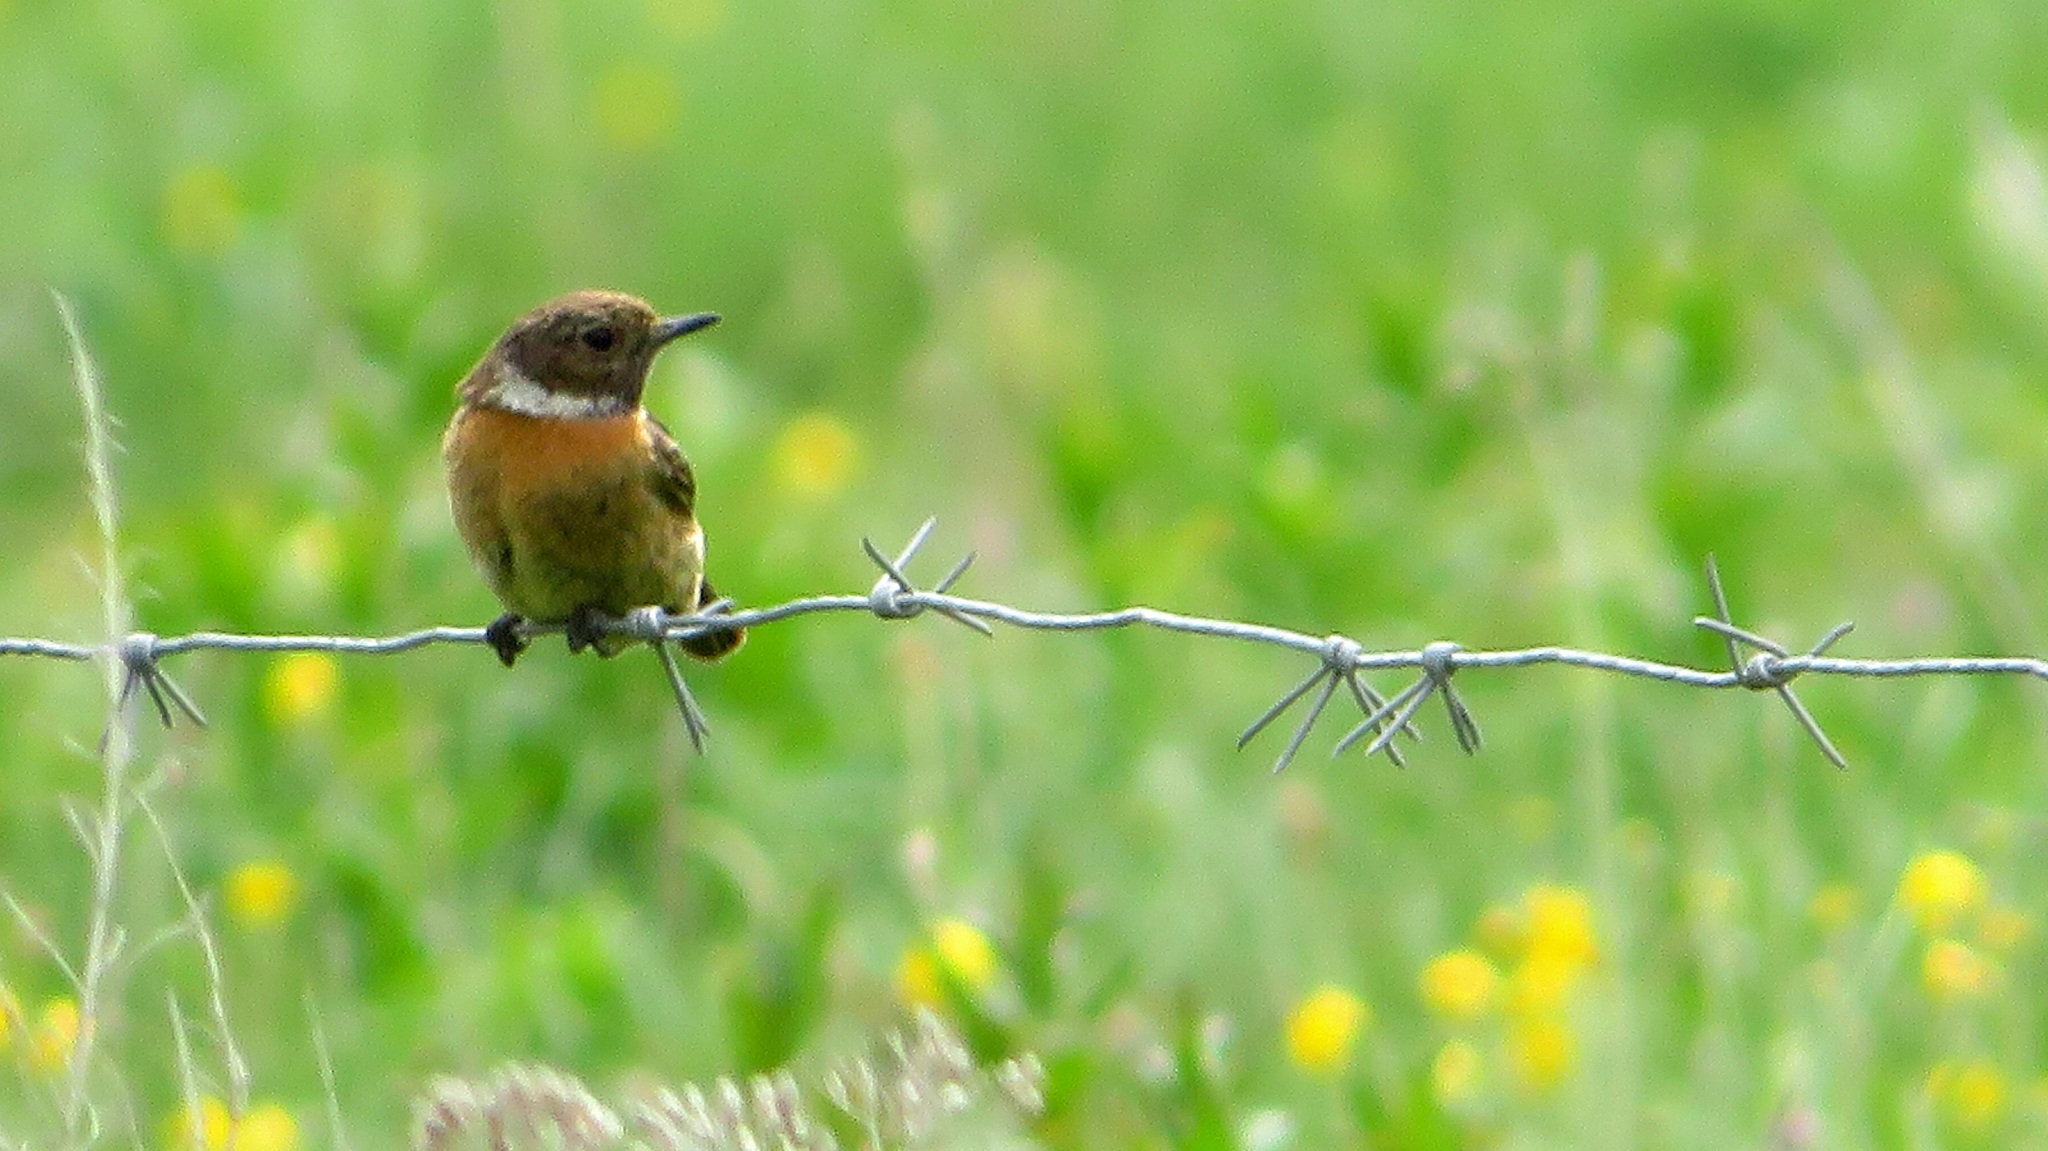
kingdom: Animalia
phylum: Chordata
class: Aves
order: Passeriformes
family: Muscicapidae
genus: Saxicola
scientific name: Saxicola rubicola
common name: European stonechat
